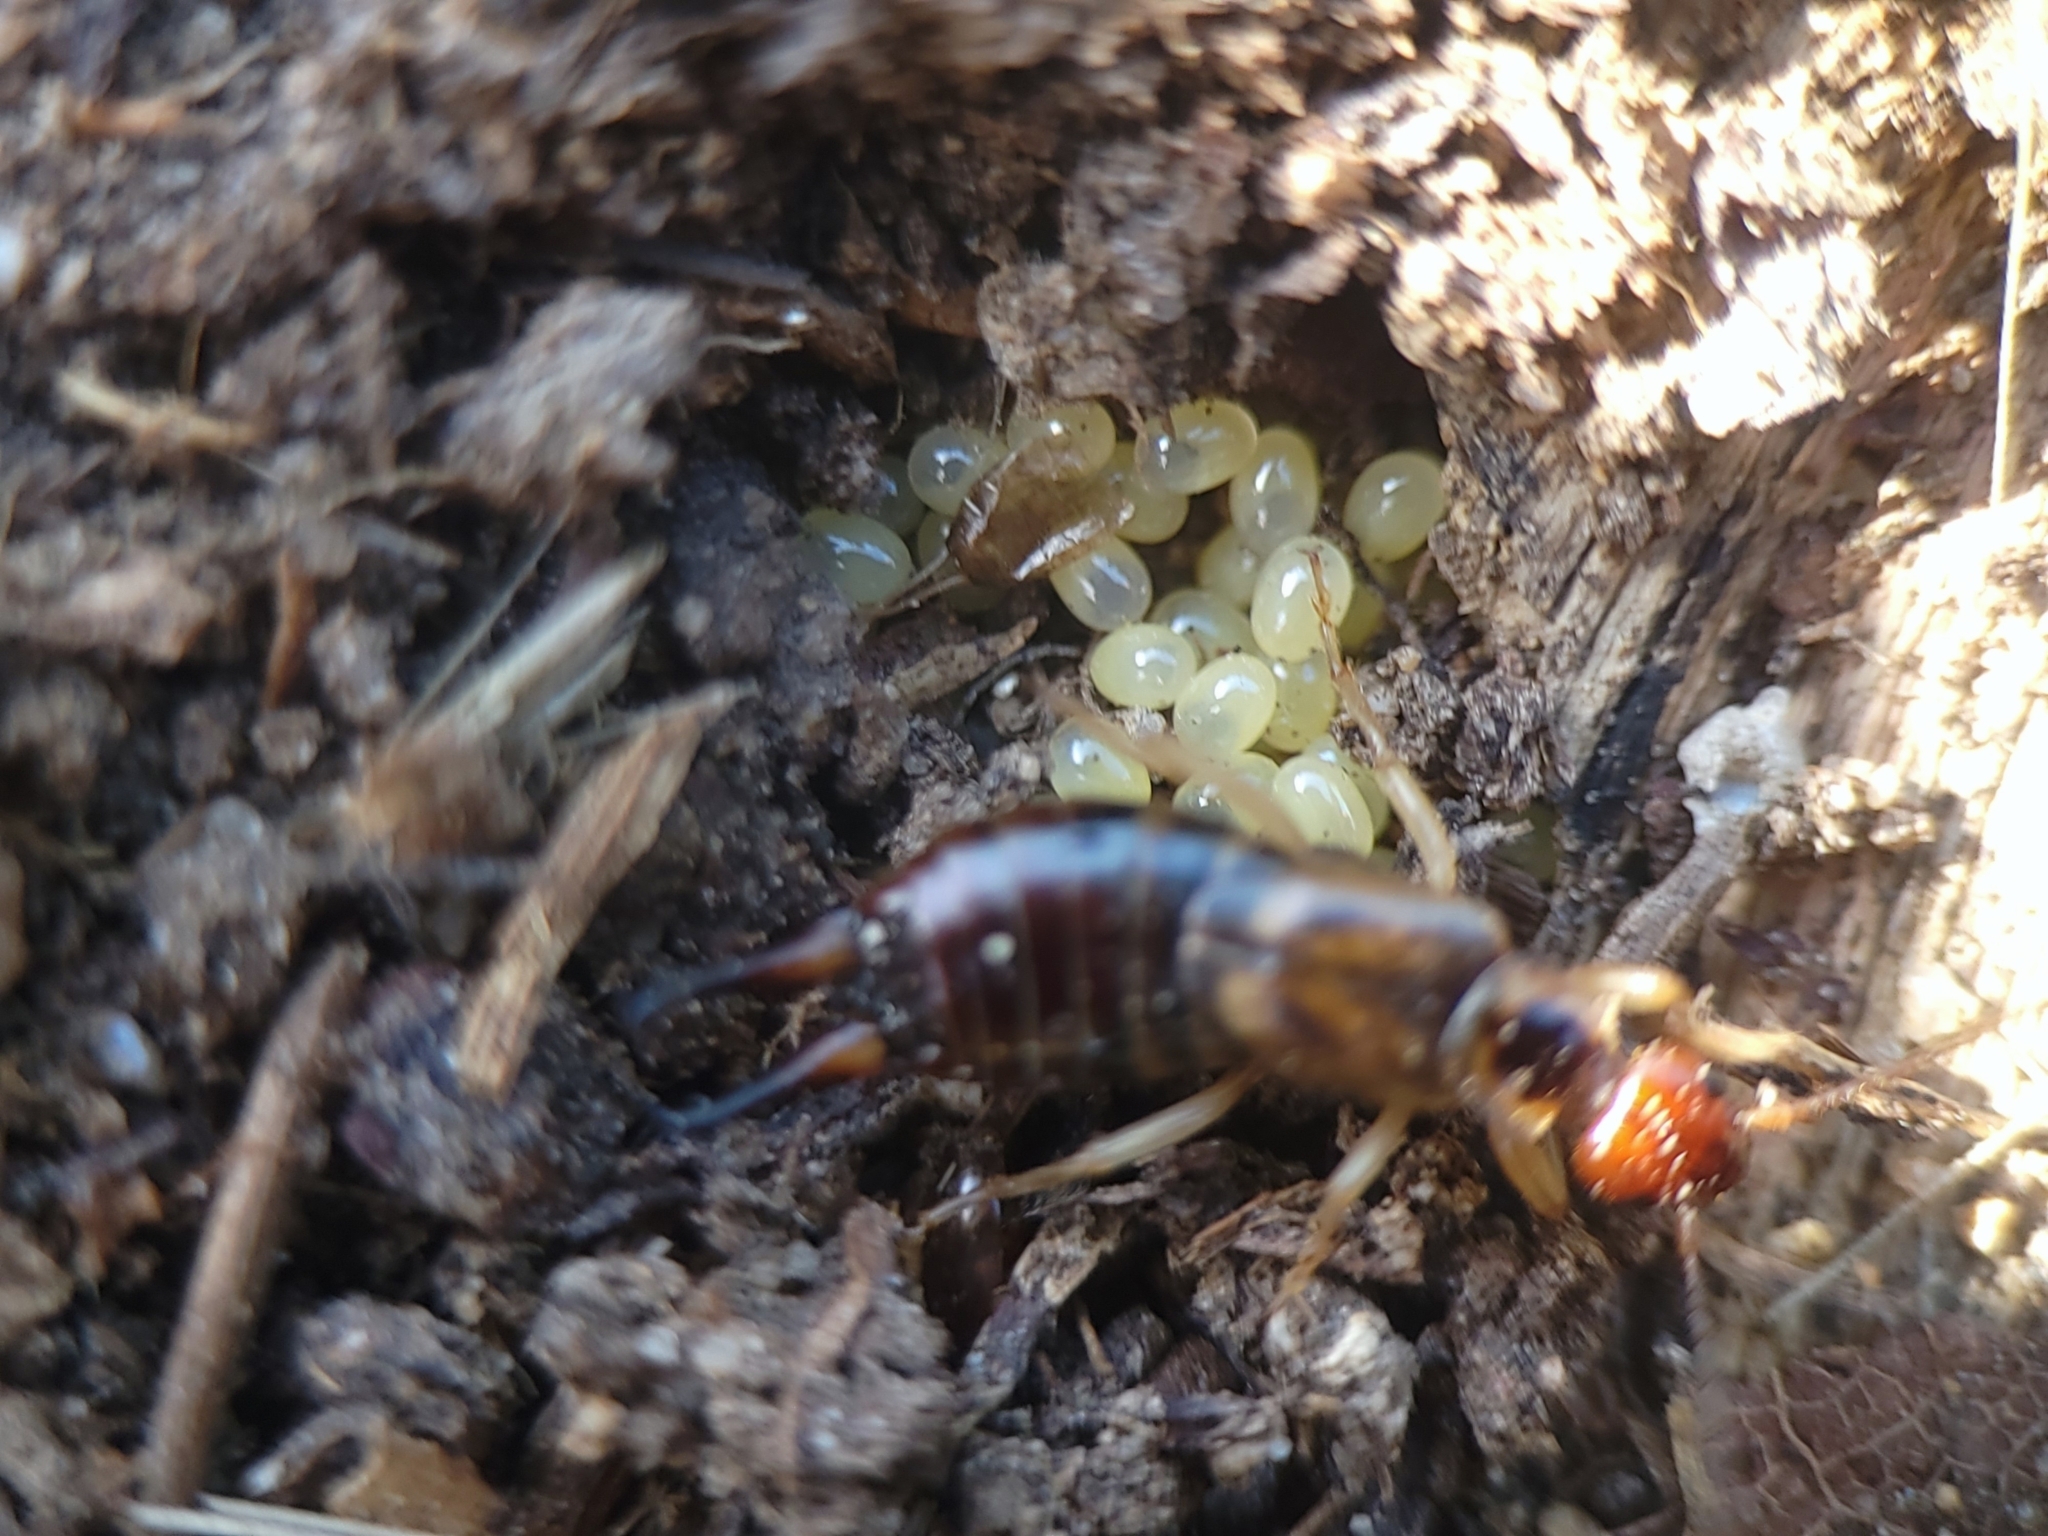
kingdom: Animalia
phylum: Arthropoda
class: Insecta
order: Dermaptera
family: Forficulidae
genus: Forficula
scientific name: Forficula
